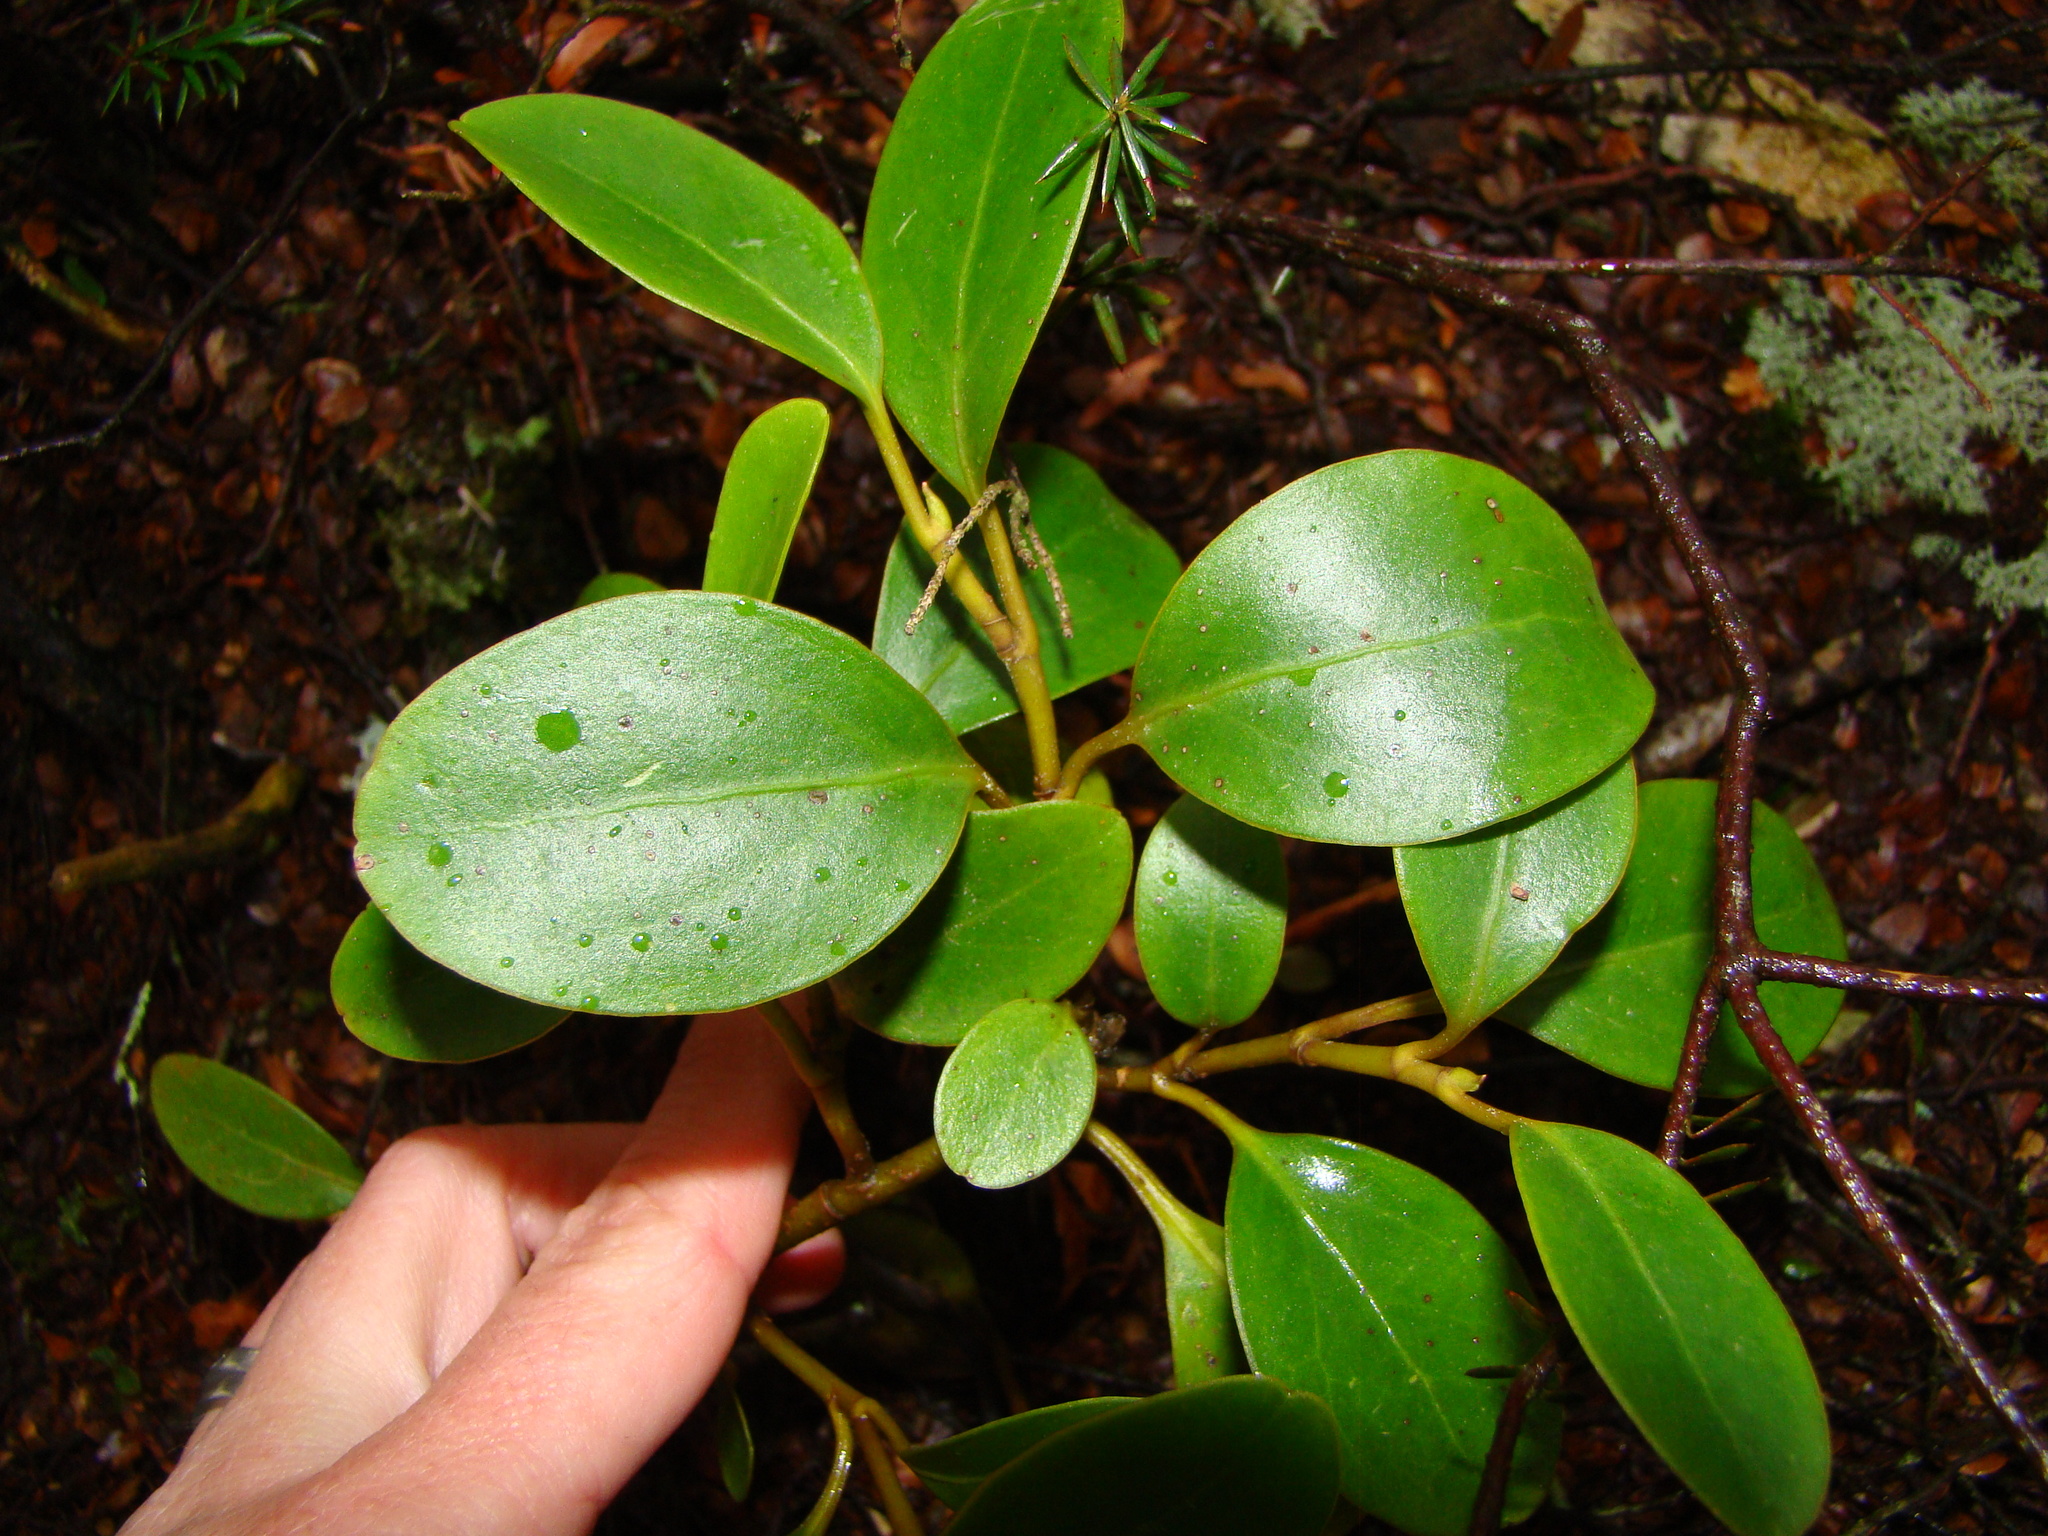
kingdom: Plantae
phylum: Tracheophyta
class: Magnoliopsida
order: Apiales
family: Griseliniaceae
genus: Griselinia
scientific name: Griselinia littoralis
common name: New zealand broadleaf
